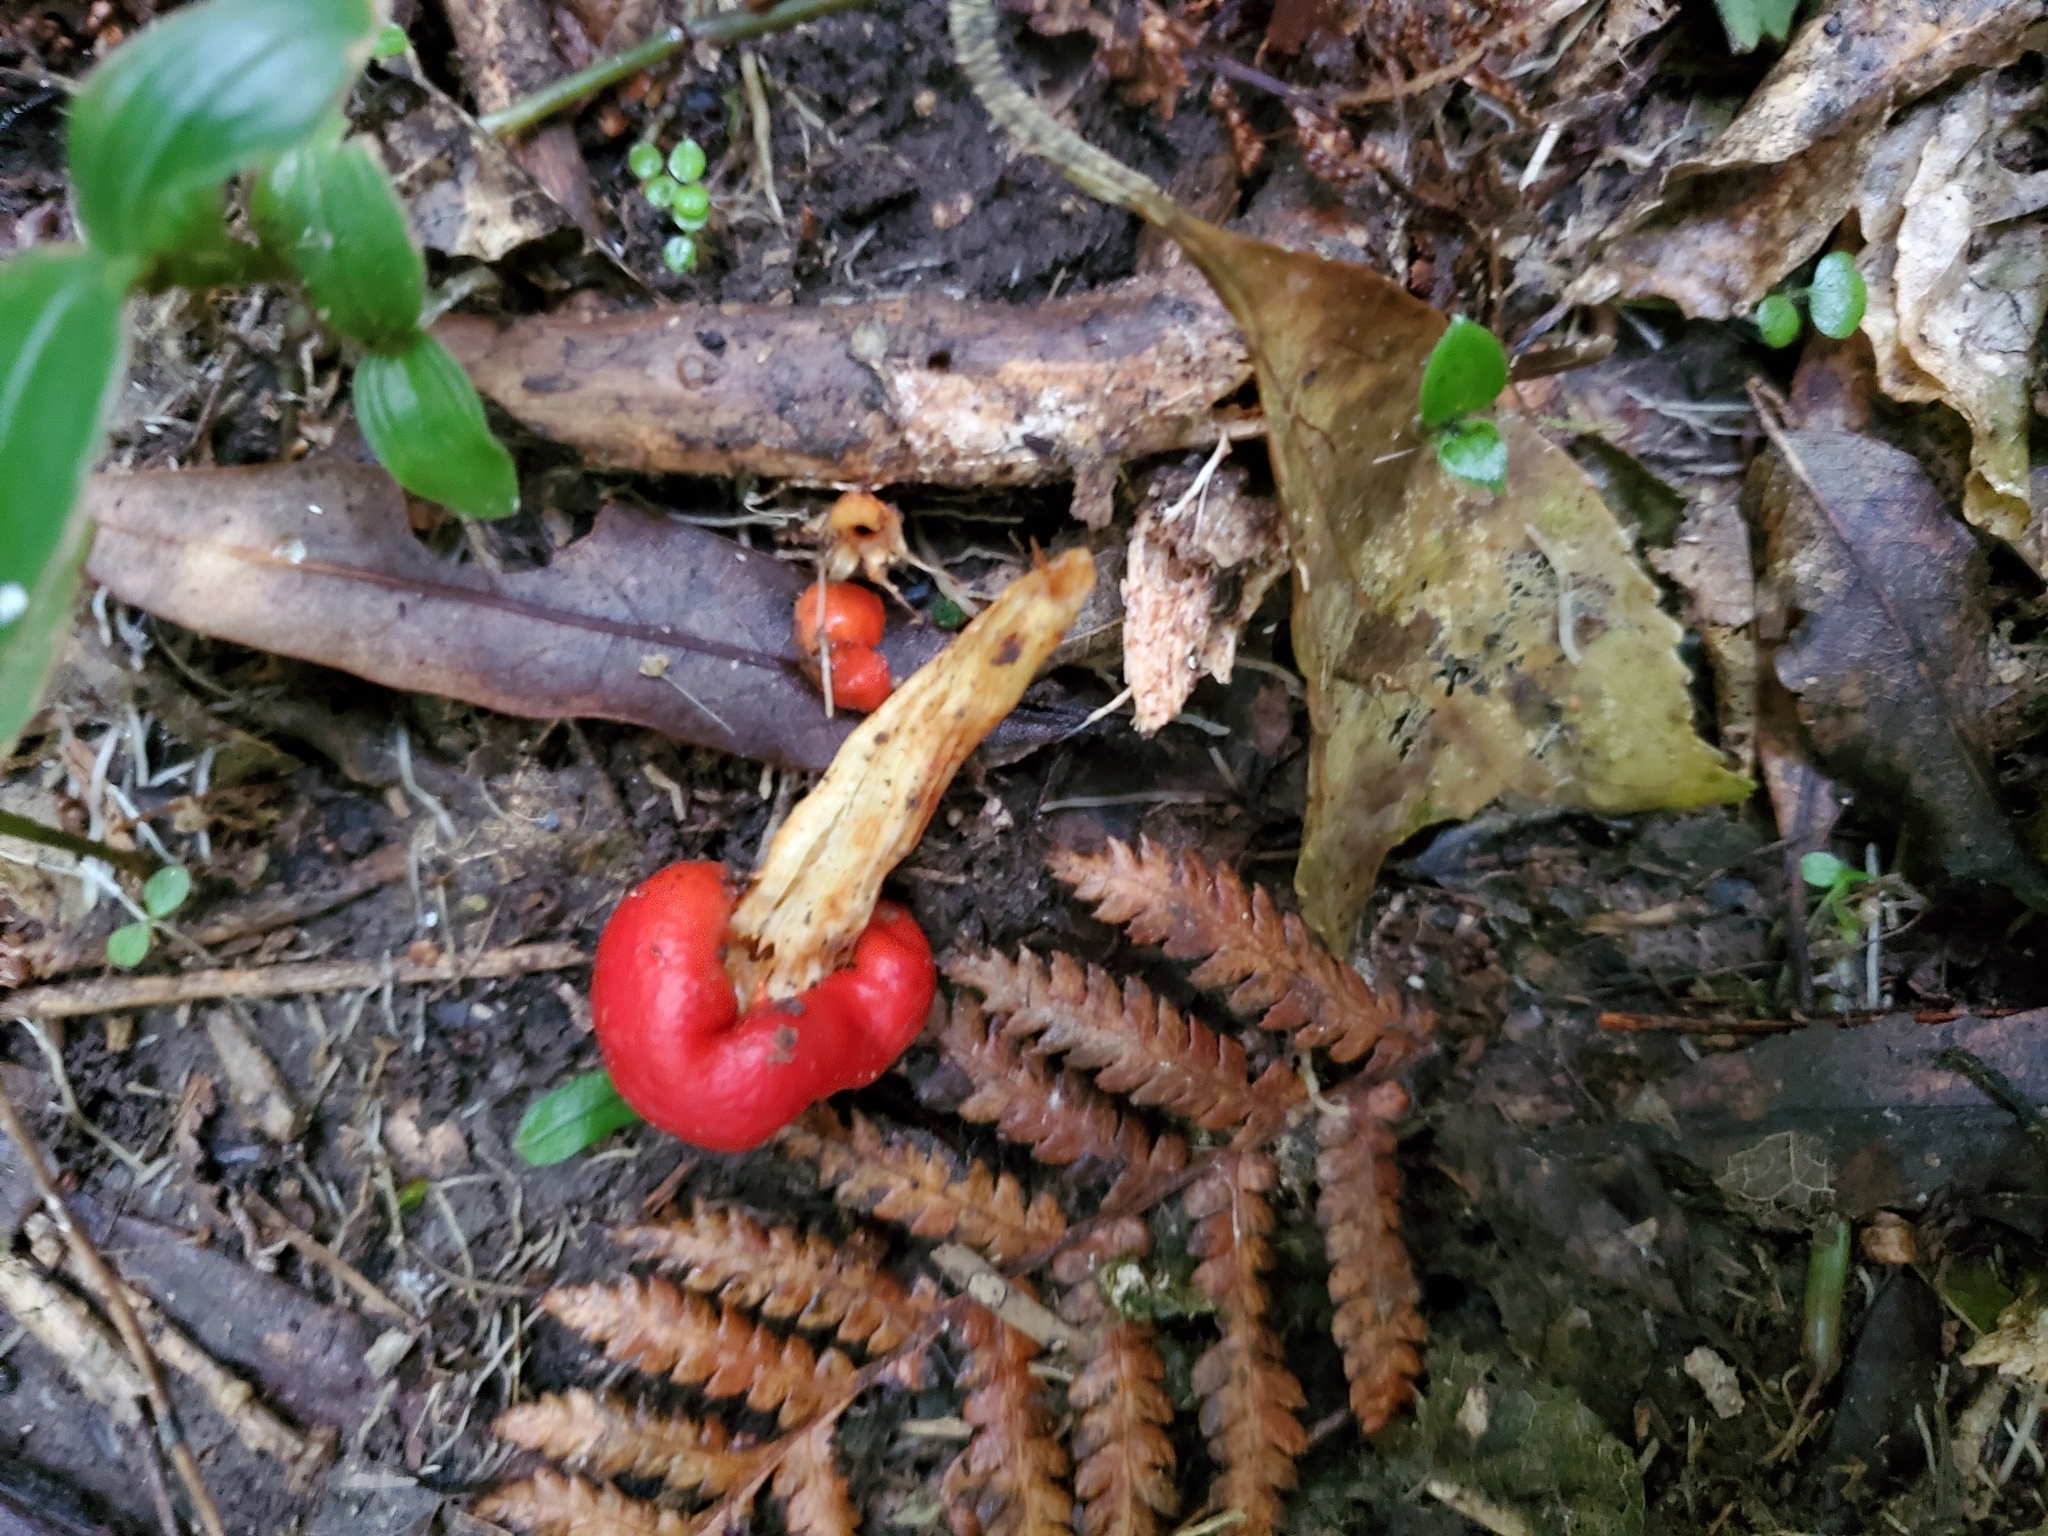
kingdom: Fungi
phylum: Basidiomycota
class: Agaricomycetes
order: Agaricales
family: Strophariaceae
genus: Leratiomyces
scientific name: Leratiomyces erythrocephalus
